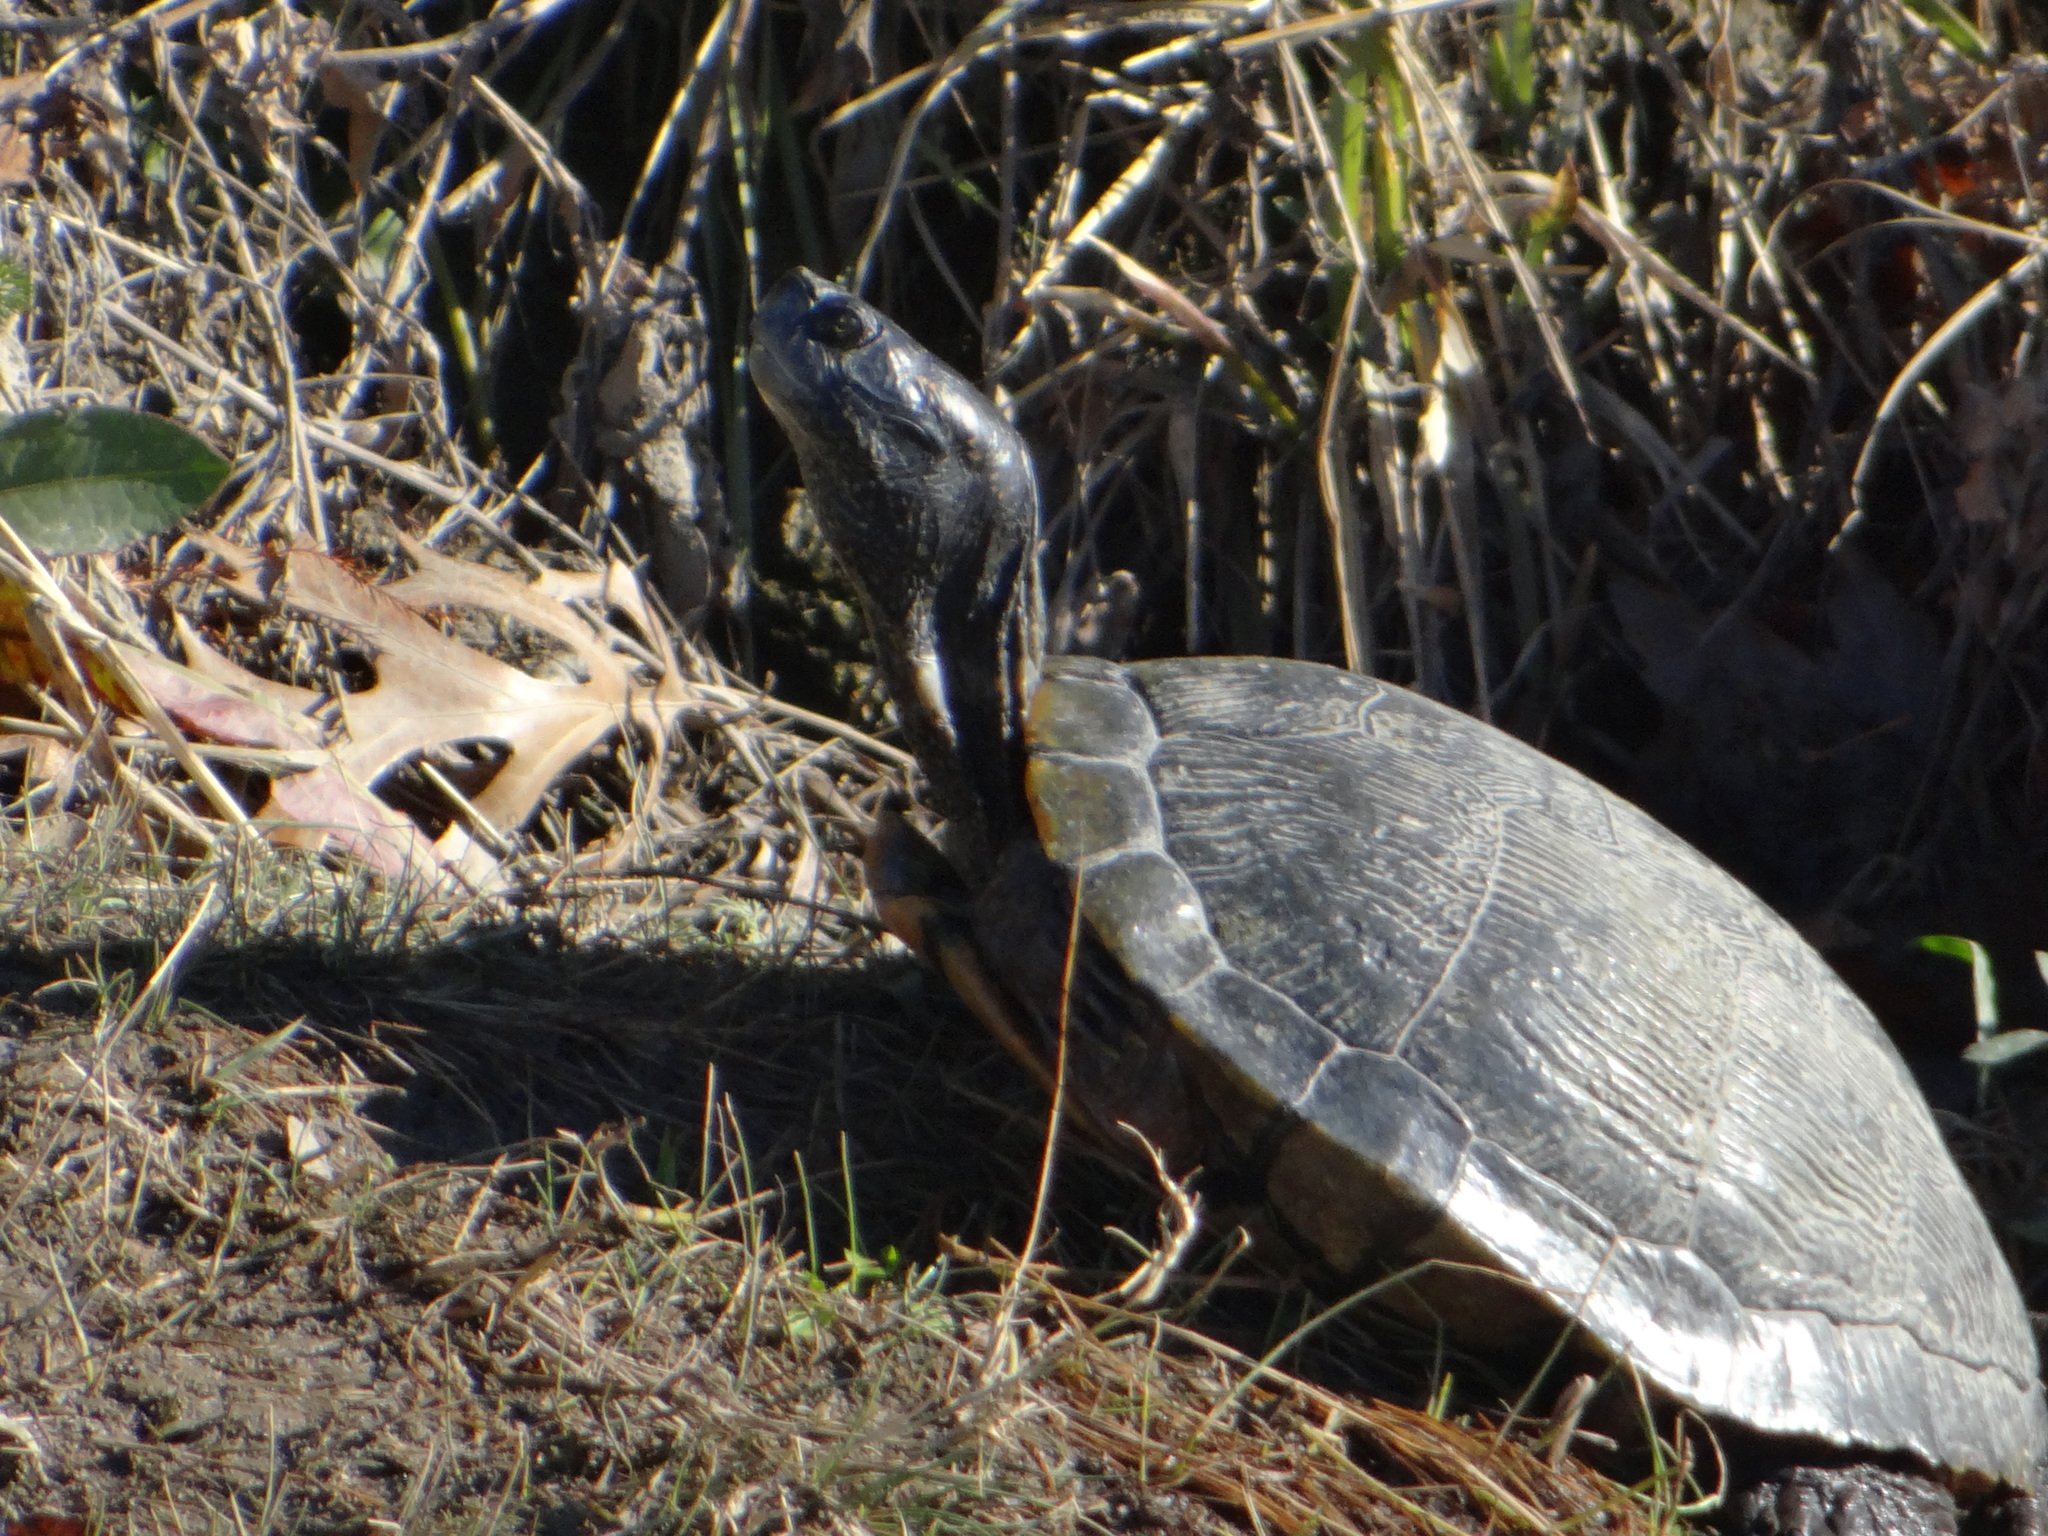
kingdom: Animalia
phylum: Chordata
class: Testudines
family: Emydidae
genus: Trachemys
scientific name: Trachemys scripta
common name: Slider
